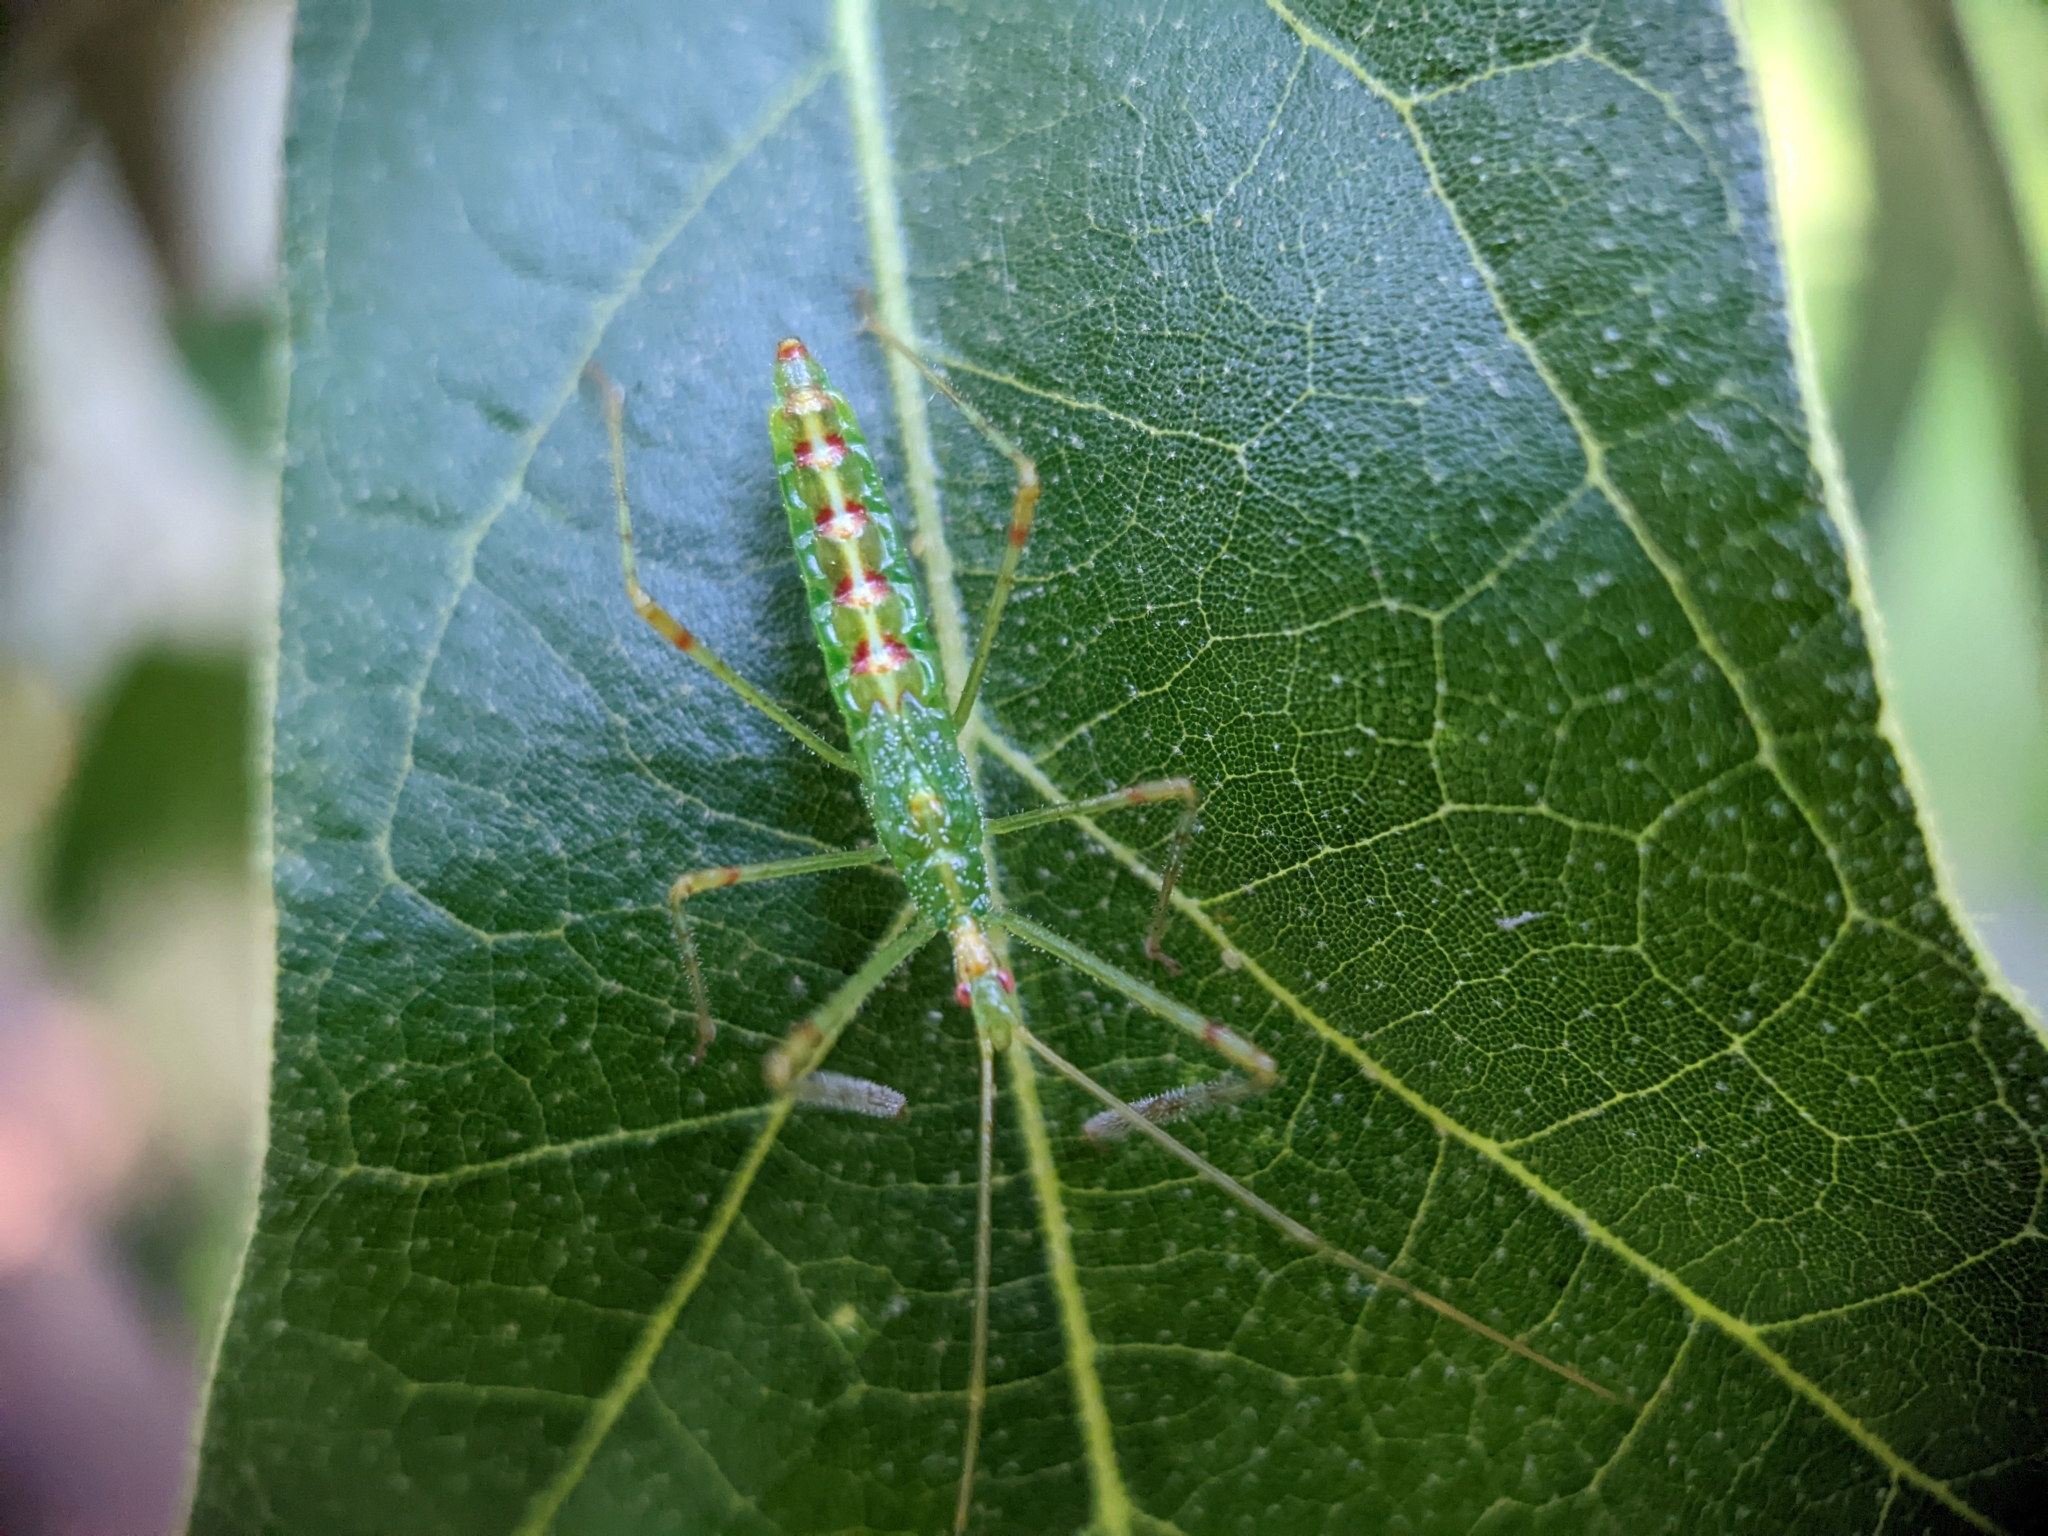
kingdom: Animalia
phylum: Arthropoda
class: Insecta
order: Hemiptera
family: Reduviidae
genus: Zelus
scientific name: Zelus luridus
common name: Pale green assassin bug
